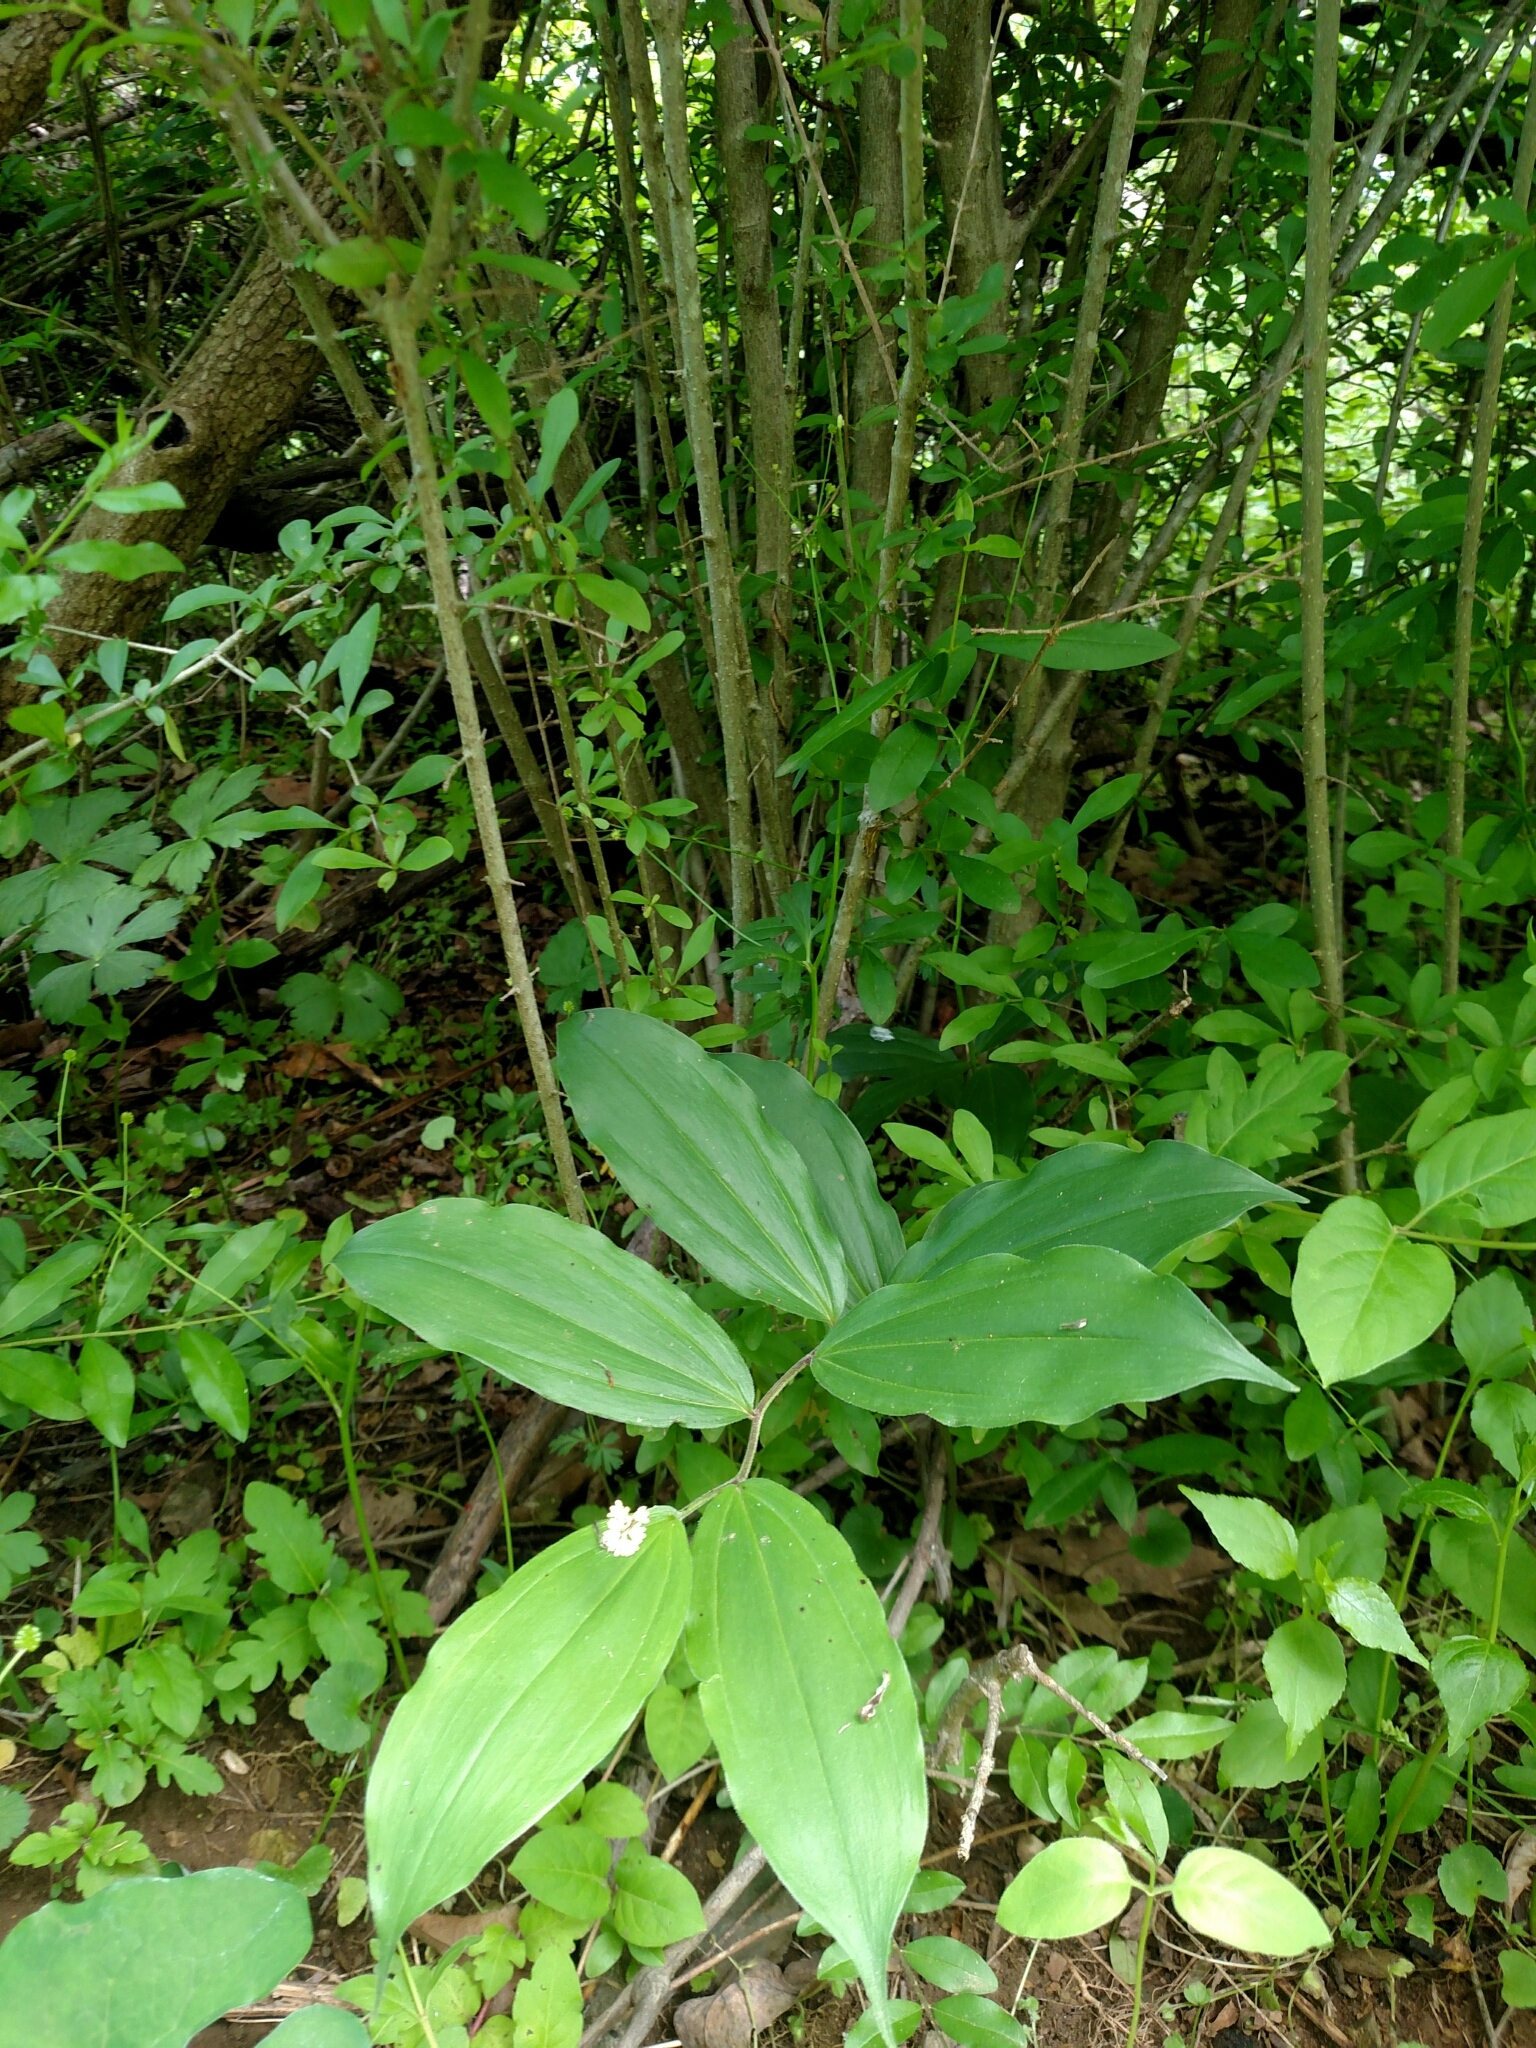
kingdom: Plantae
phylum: Tracheophyta
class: Liliopsida
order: Asparagales
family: Asparagaceae
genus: Maianthemum
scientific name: Maianthemum racemosum
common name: False spikenard
